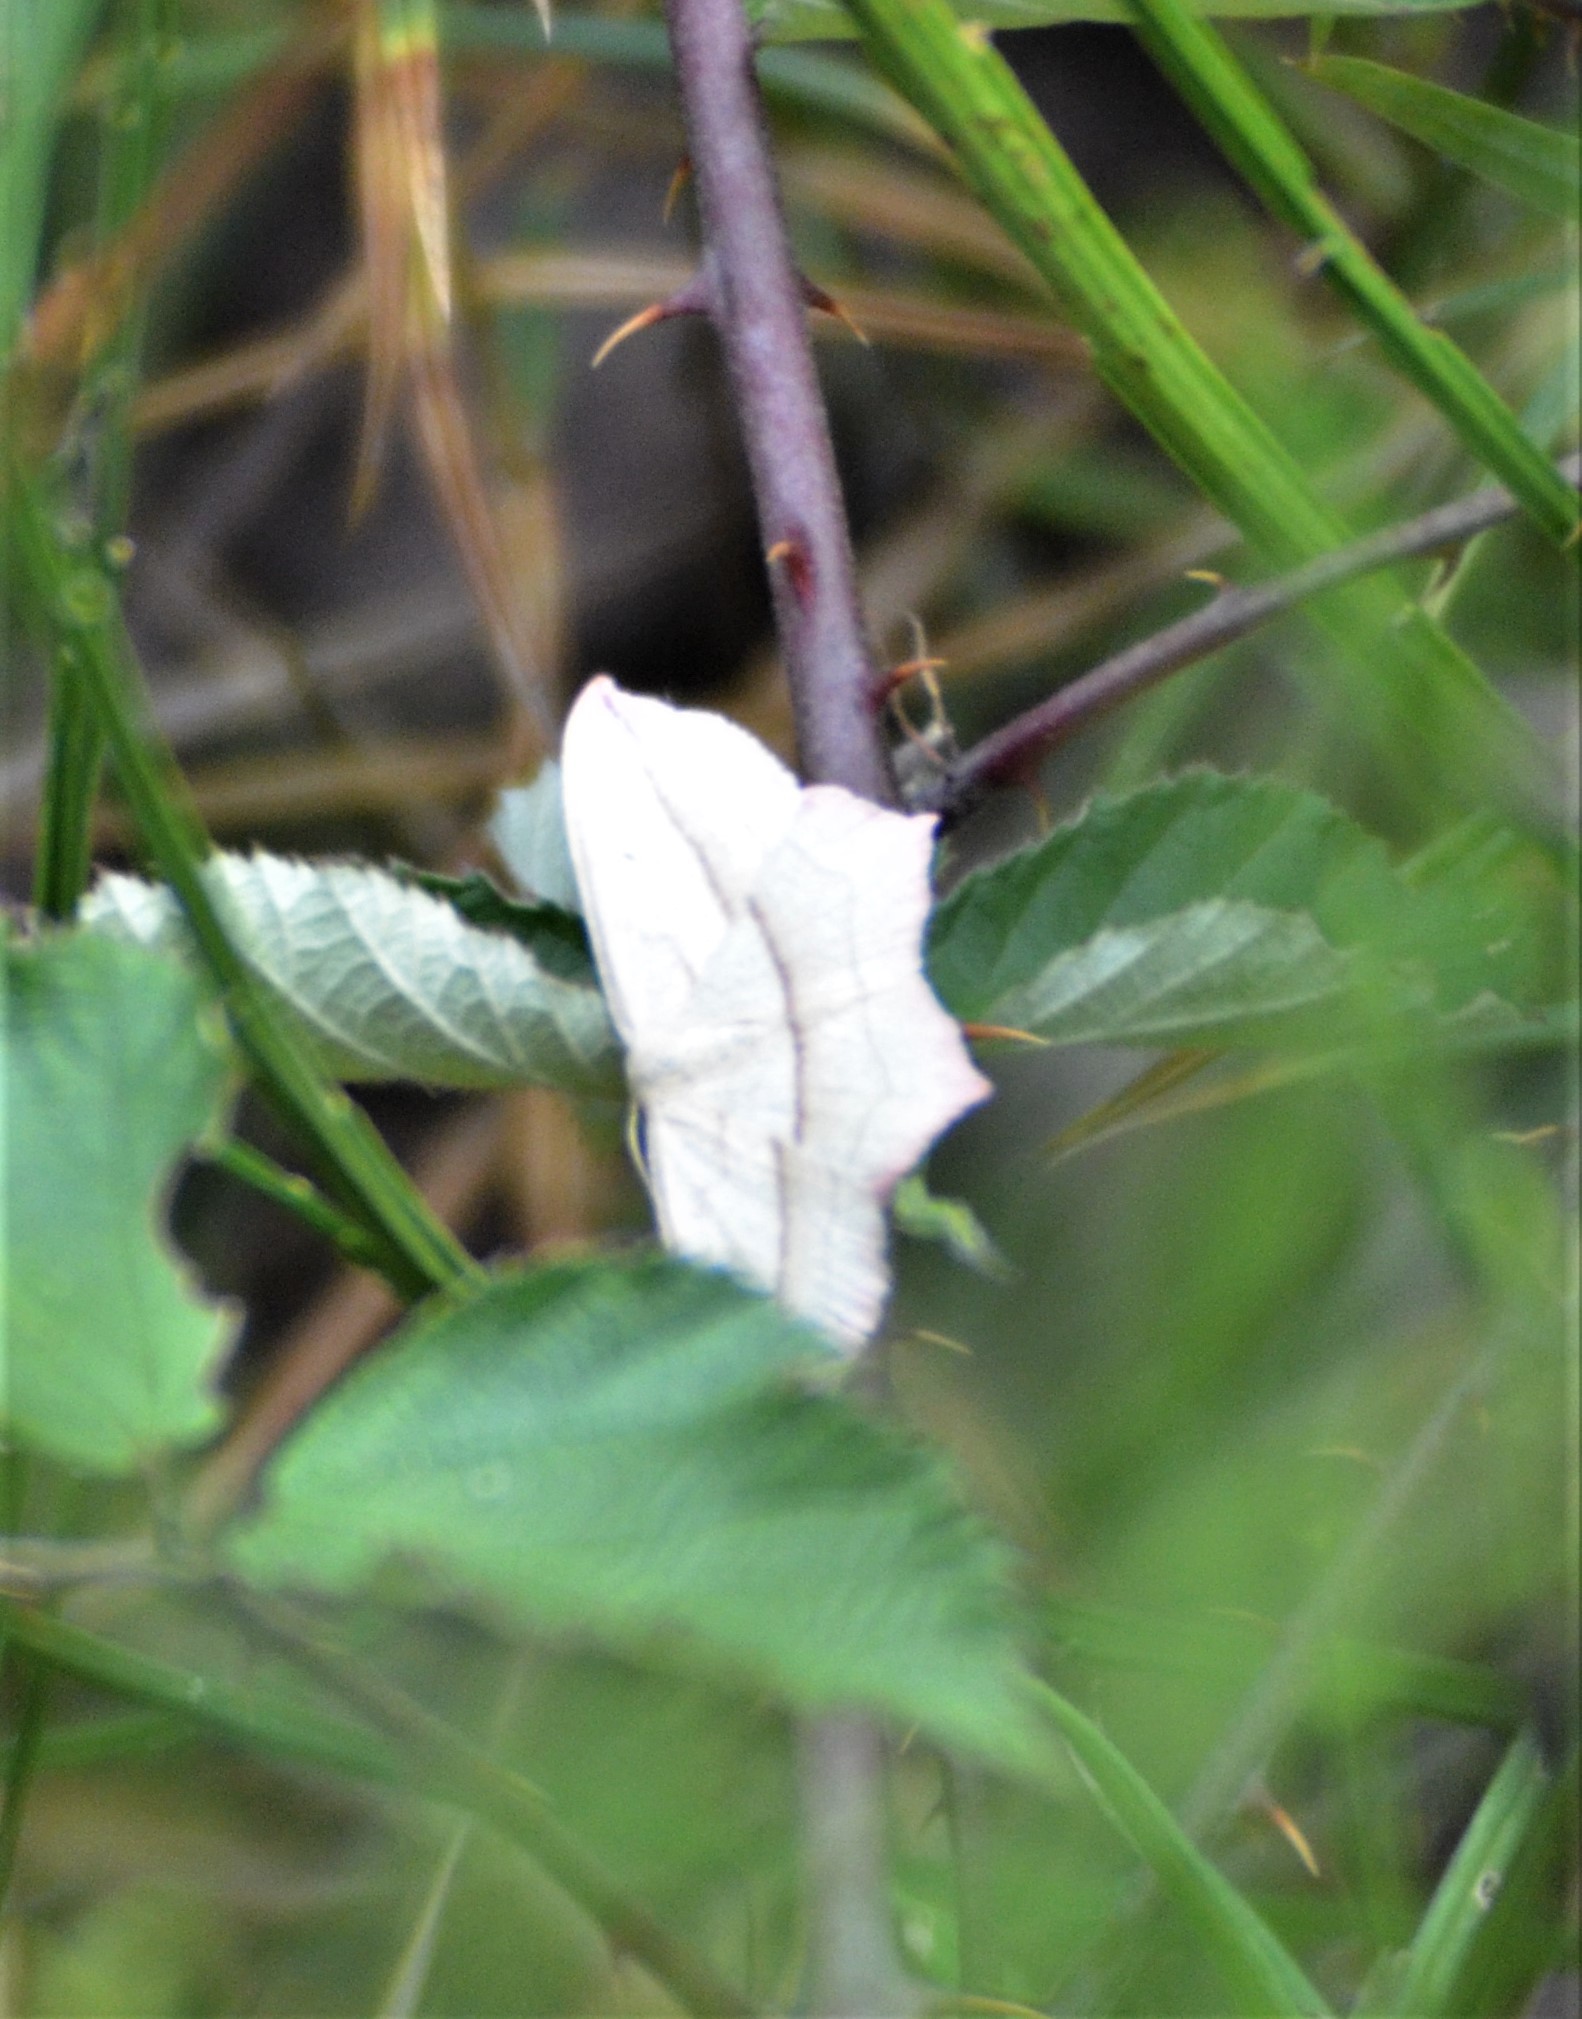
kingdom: Animalia
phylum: Arthropoda
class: Insecta
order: Lepidoptera
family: Geometridae
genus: Timandra
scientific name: Timandra comae
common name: Blood-vein
